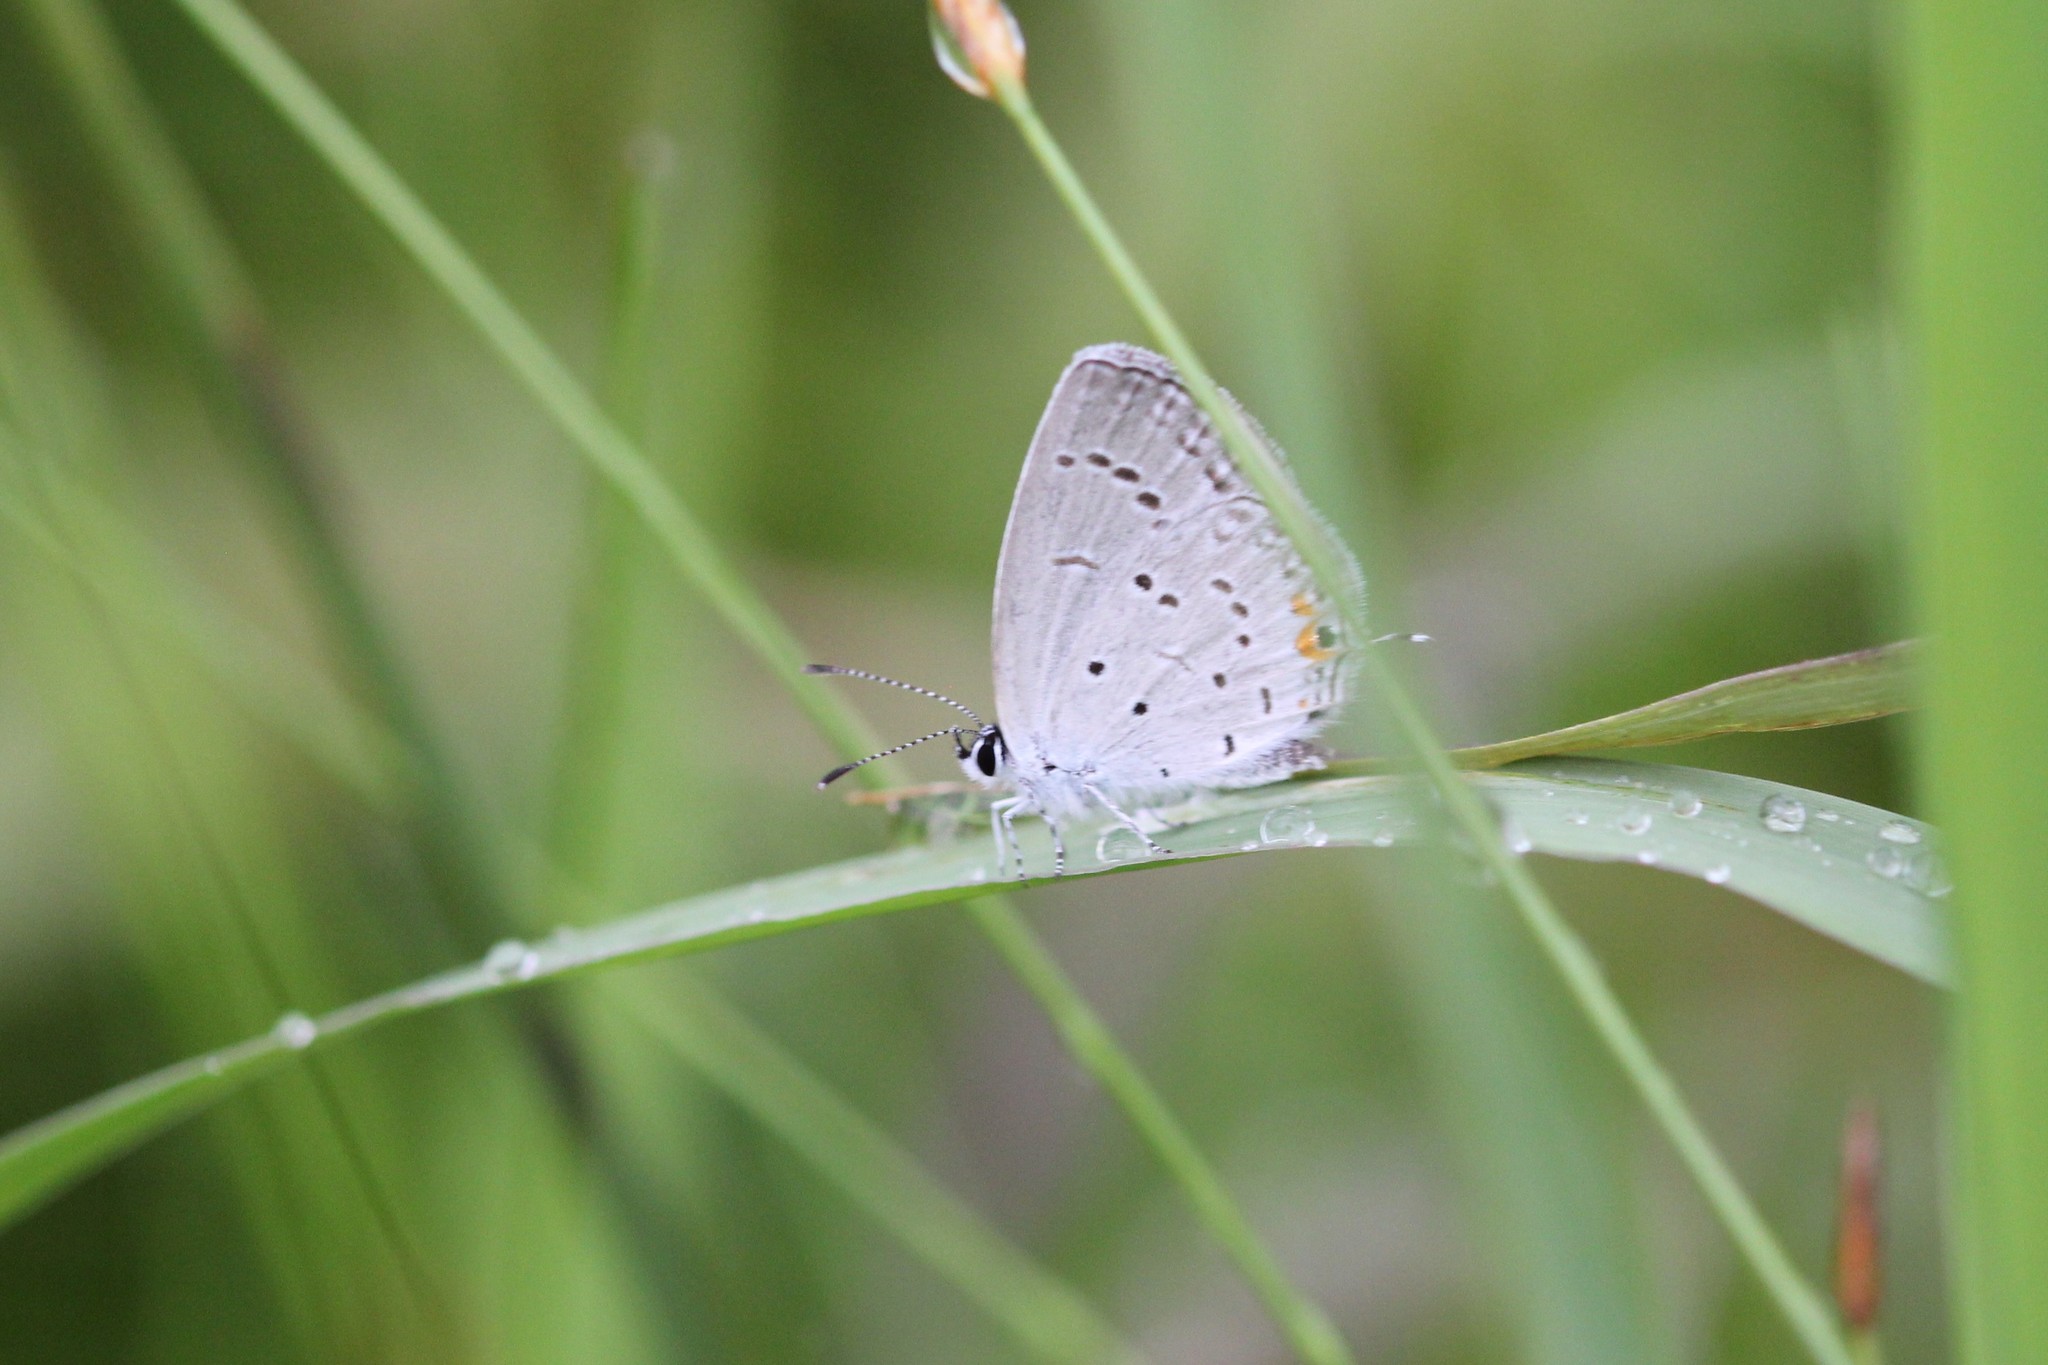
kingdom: Animalia
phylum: Arthropoda
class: Insecta
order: Lepidoptera
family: Lycaenidae
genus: Elkalyce
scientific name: Elkalyce comyntas
